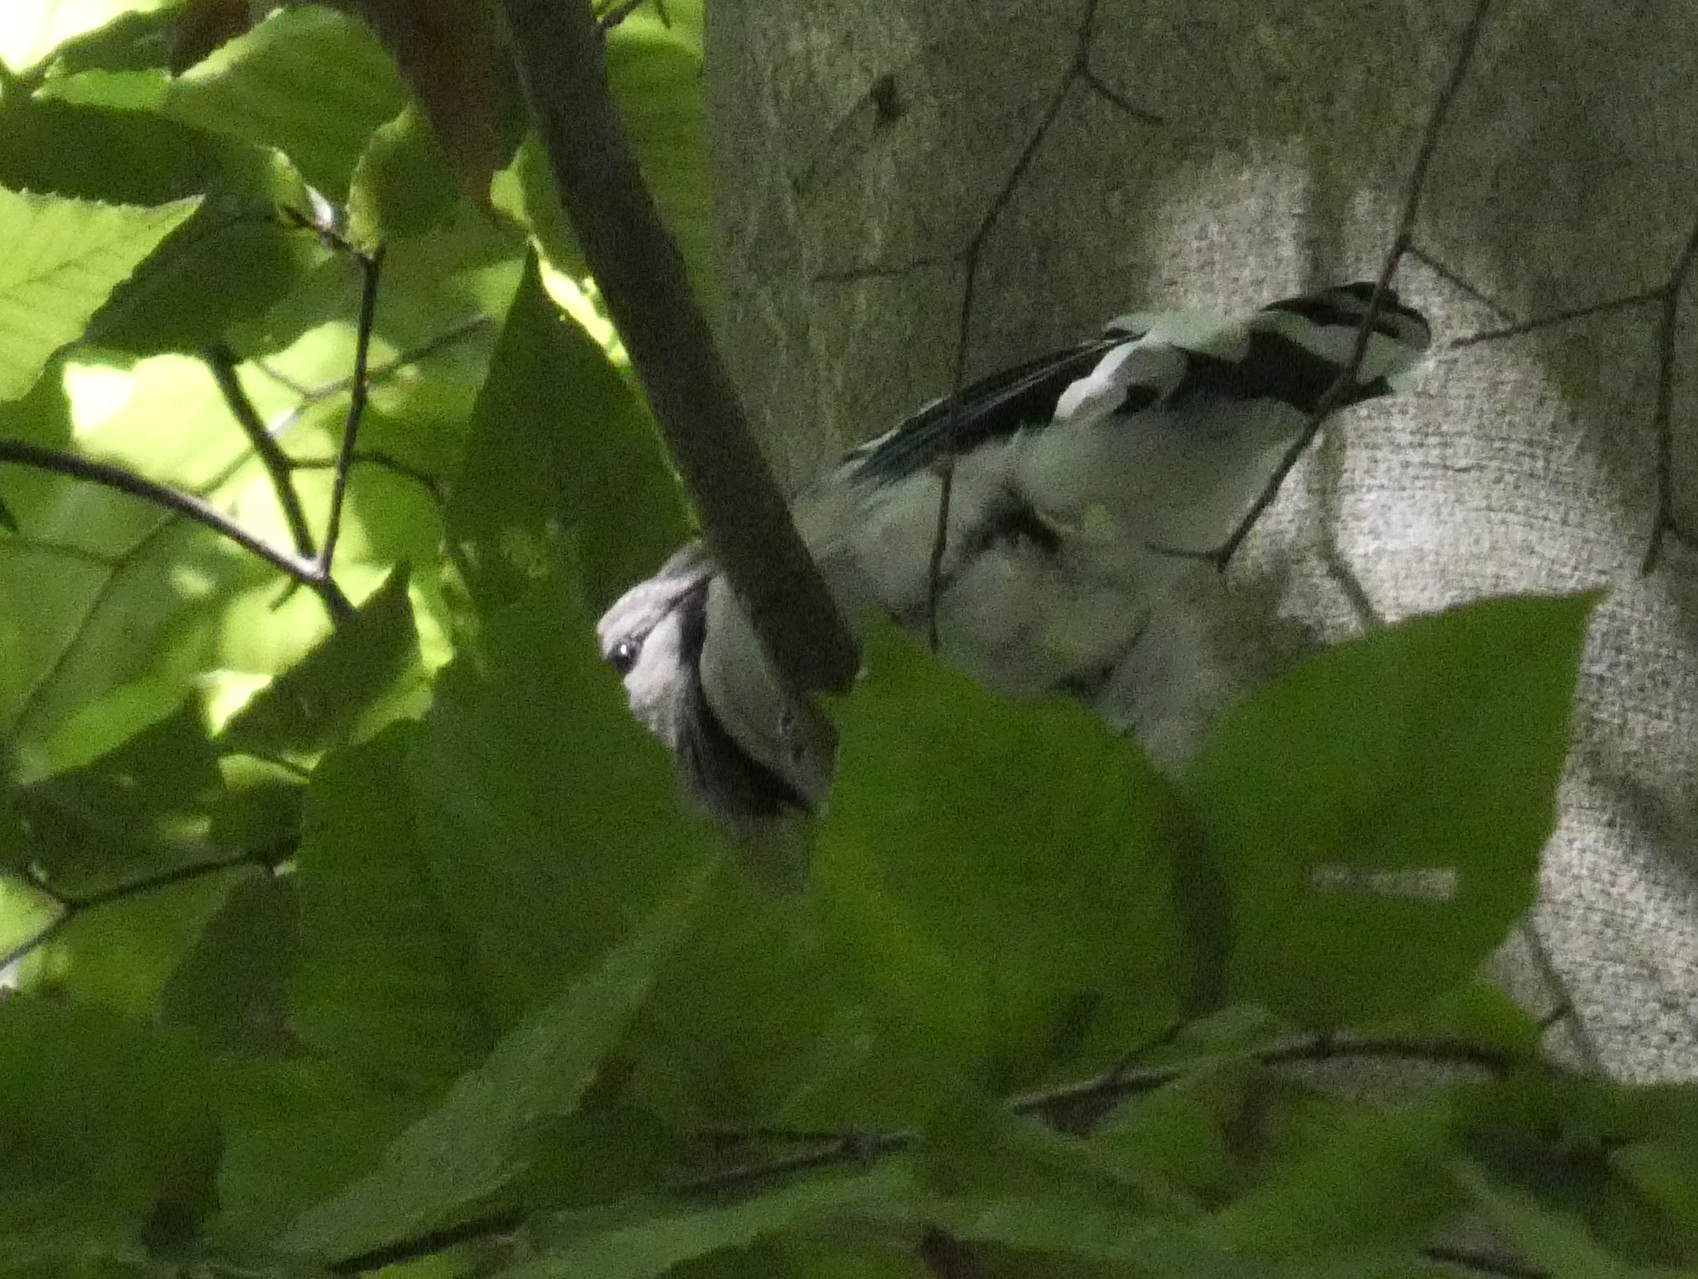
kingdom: Animalia
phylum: Chordata
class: Aves
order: Passeriformes
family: Corvidae
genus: Cyanocitta
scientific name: Cyanocitta cristata
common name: Blue jay
